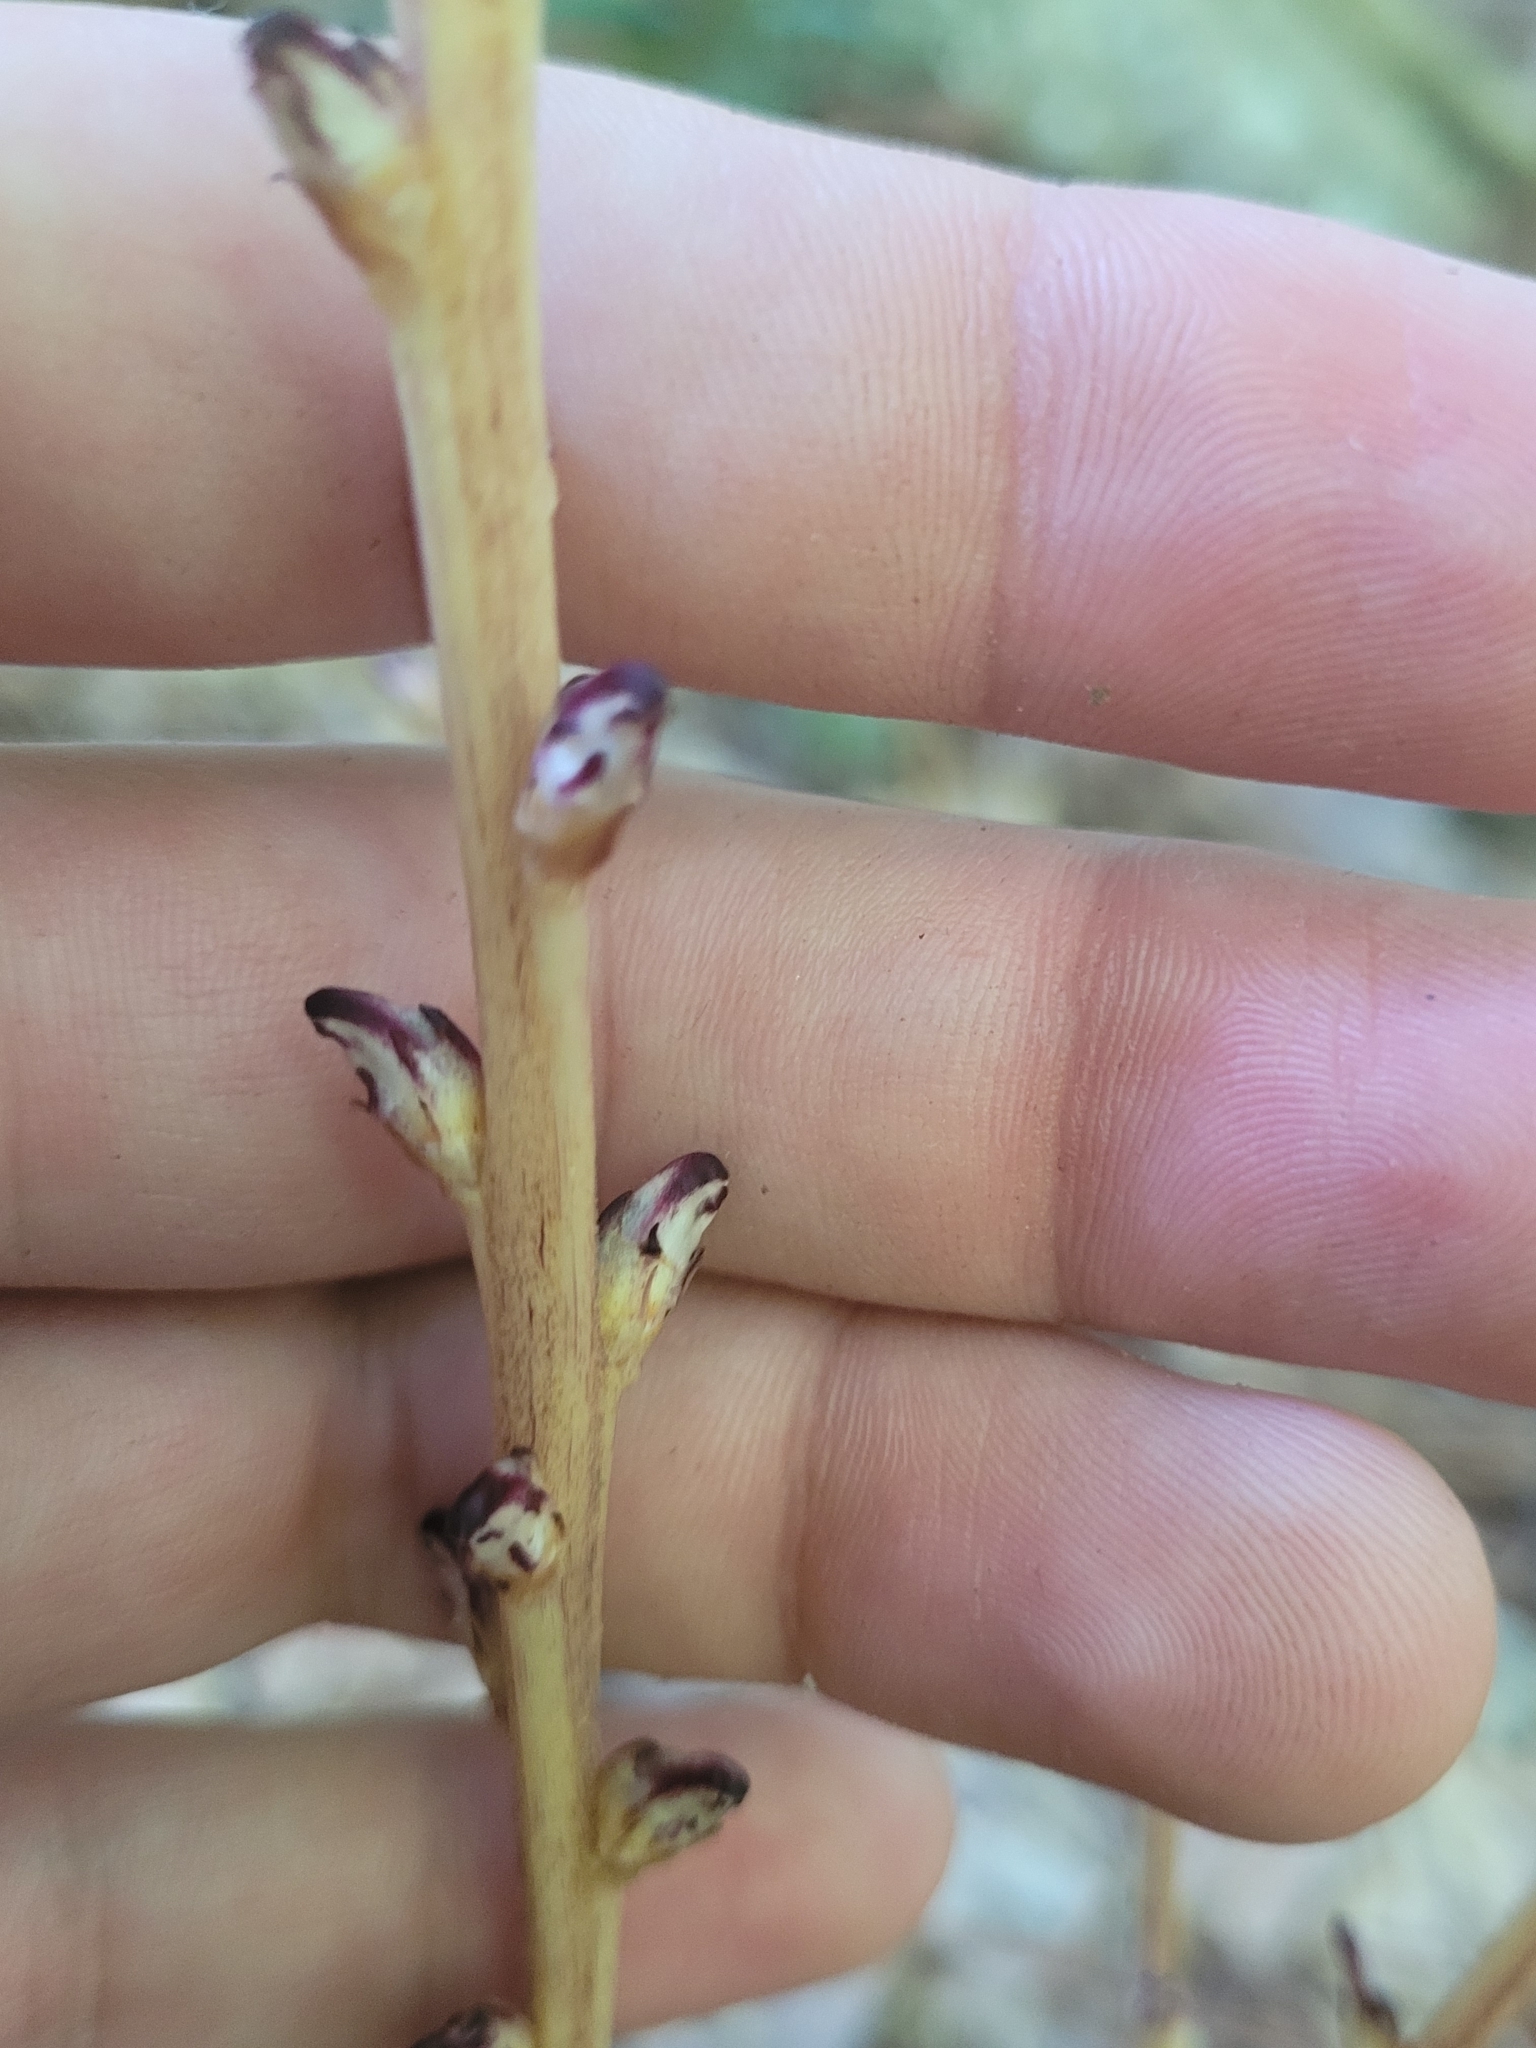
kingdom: Plantae
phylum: Tracheophyta
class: Magnoliopsida
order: Lamiales
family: Orobanchaceae
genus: Epifagus
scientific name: Epifagus virginiana
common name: Beechdrops
